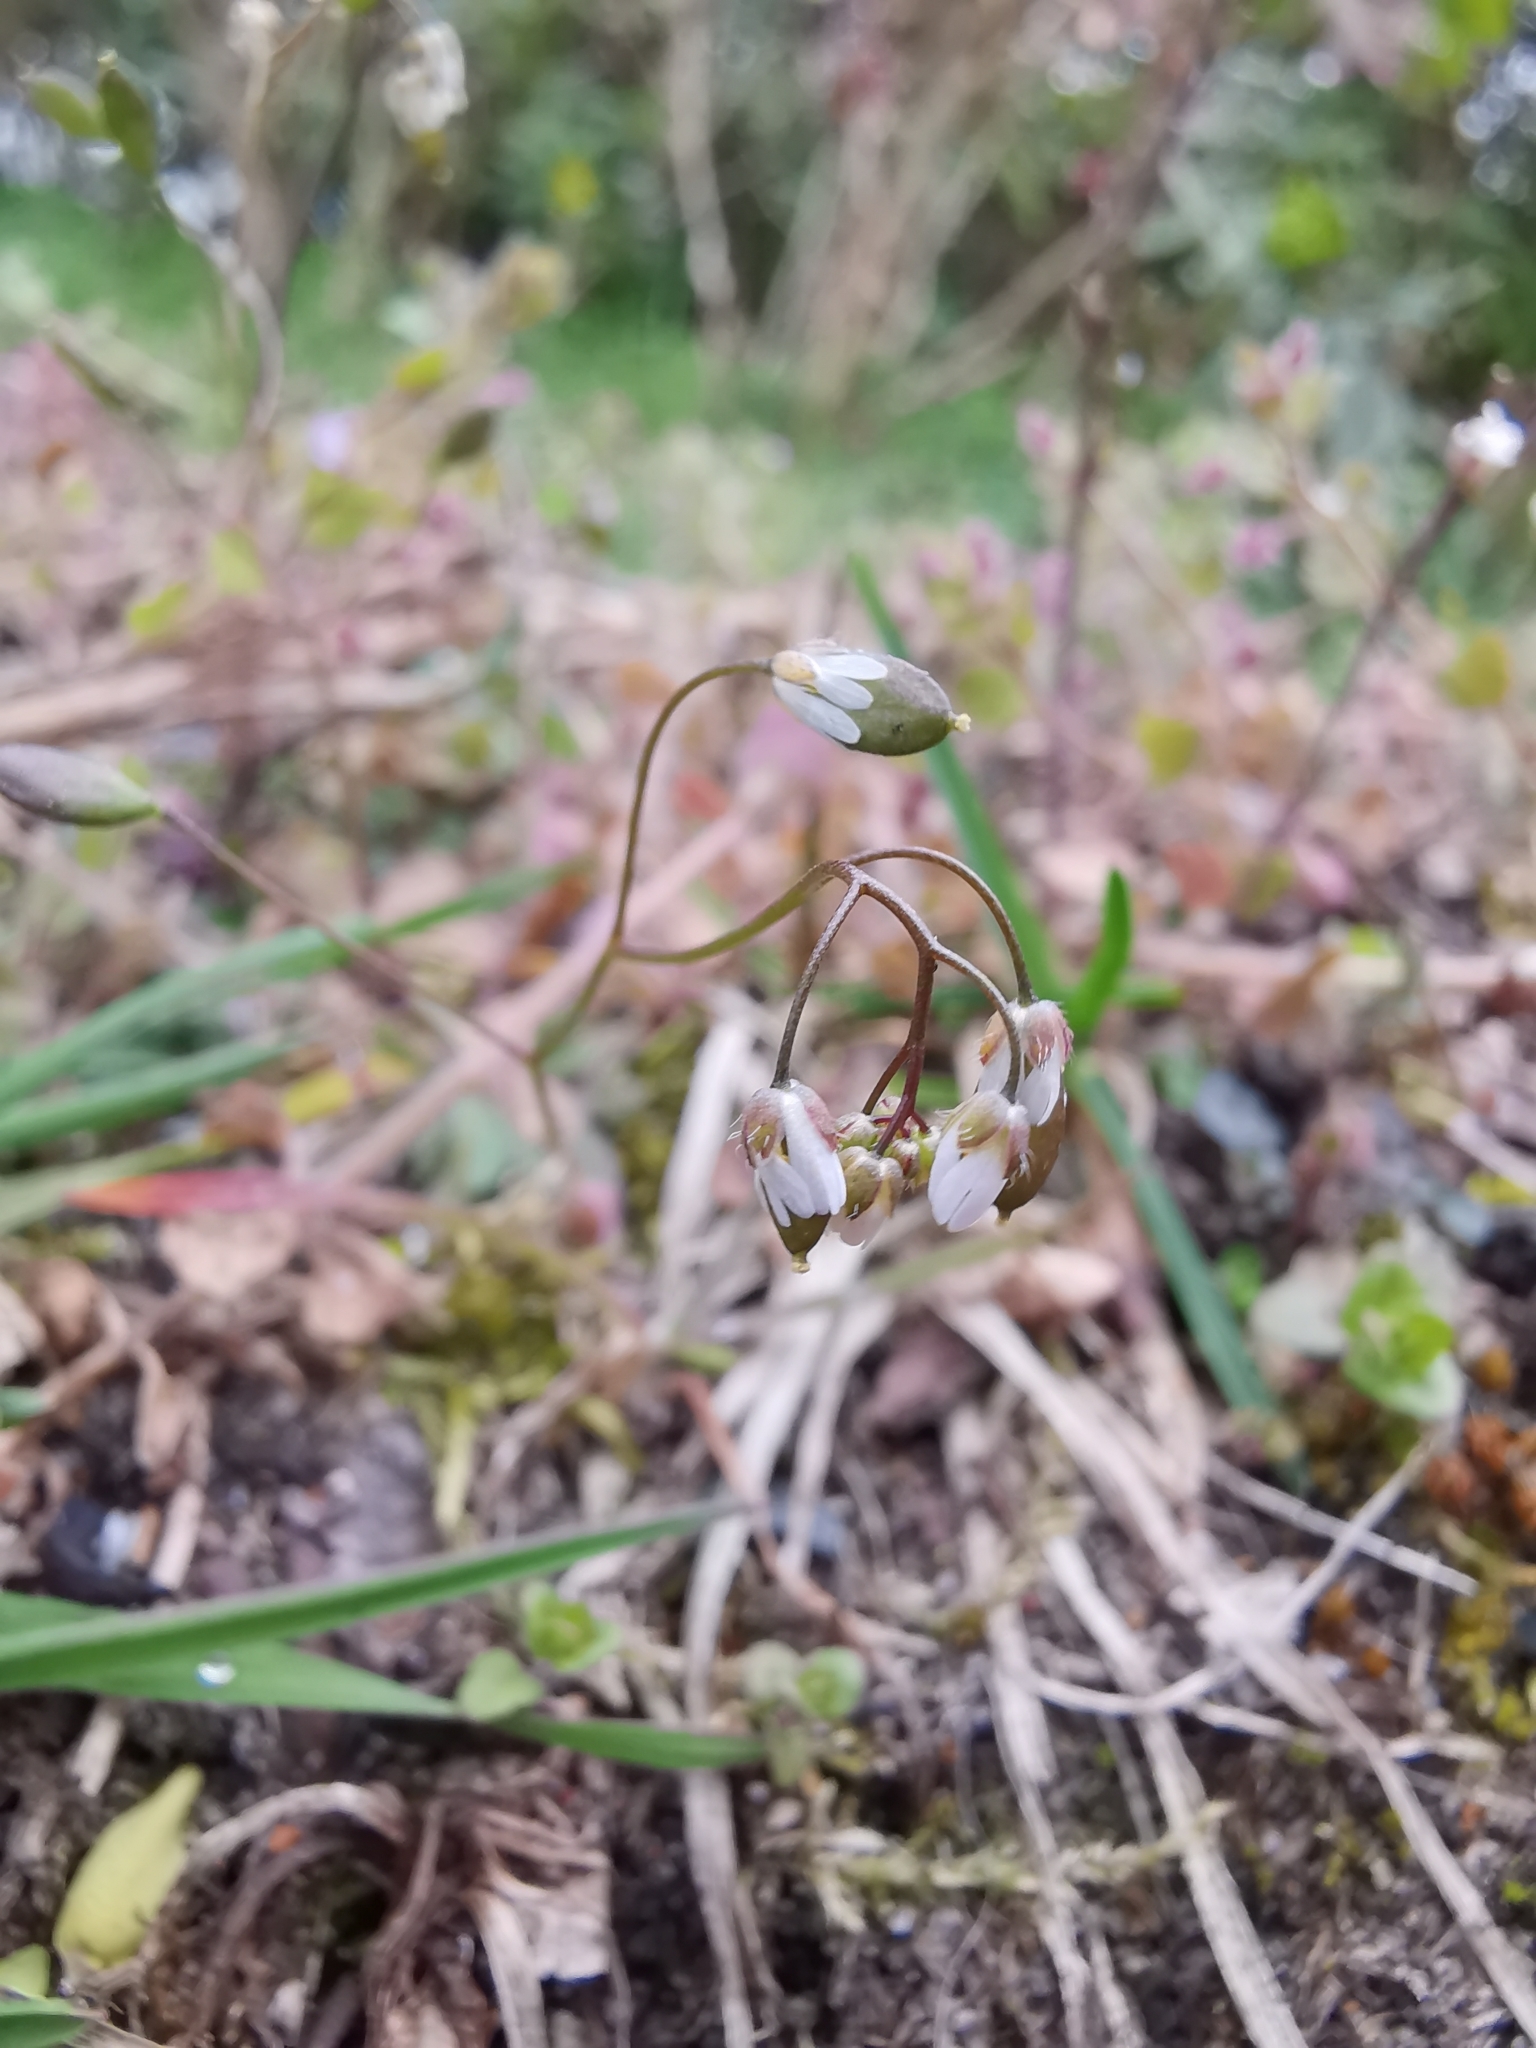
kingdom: Plantae
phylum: Tracheophyta
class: Magnoliopsida
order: Brassicales
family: Brassicaceae
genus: Draba
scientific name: Draba verna
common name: Spring draba
